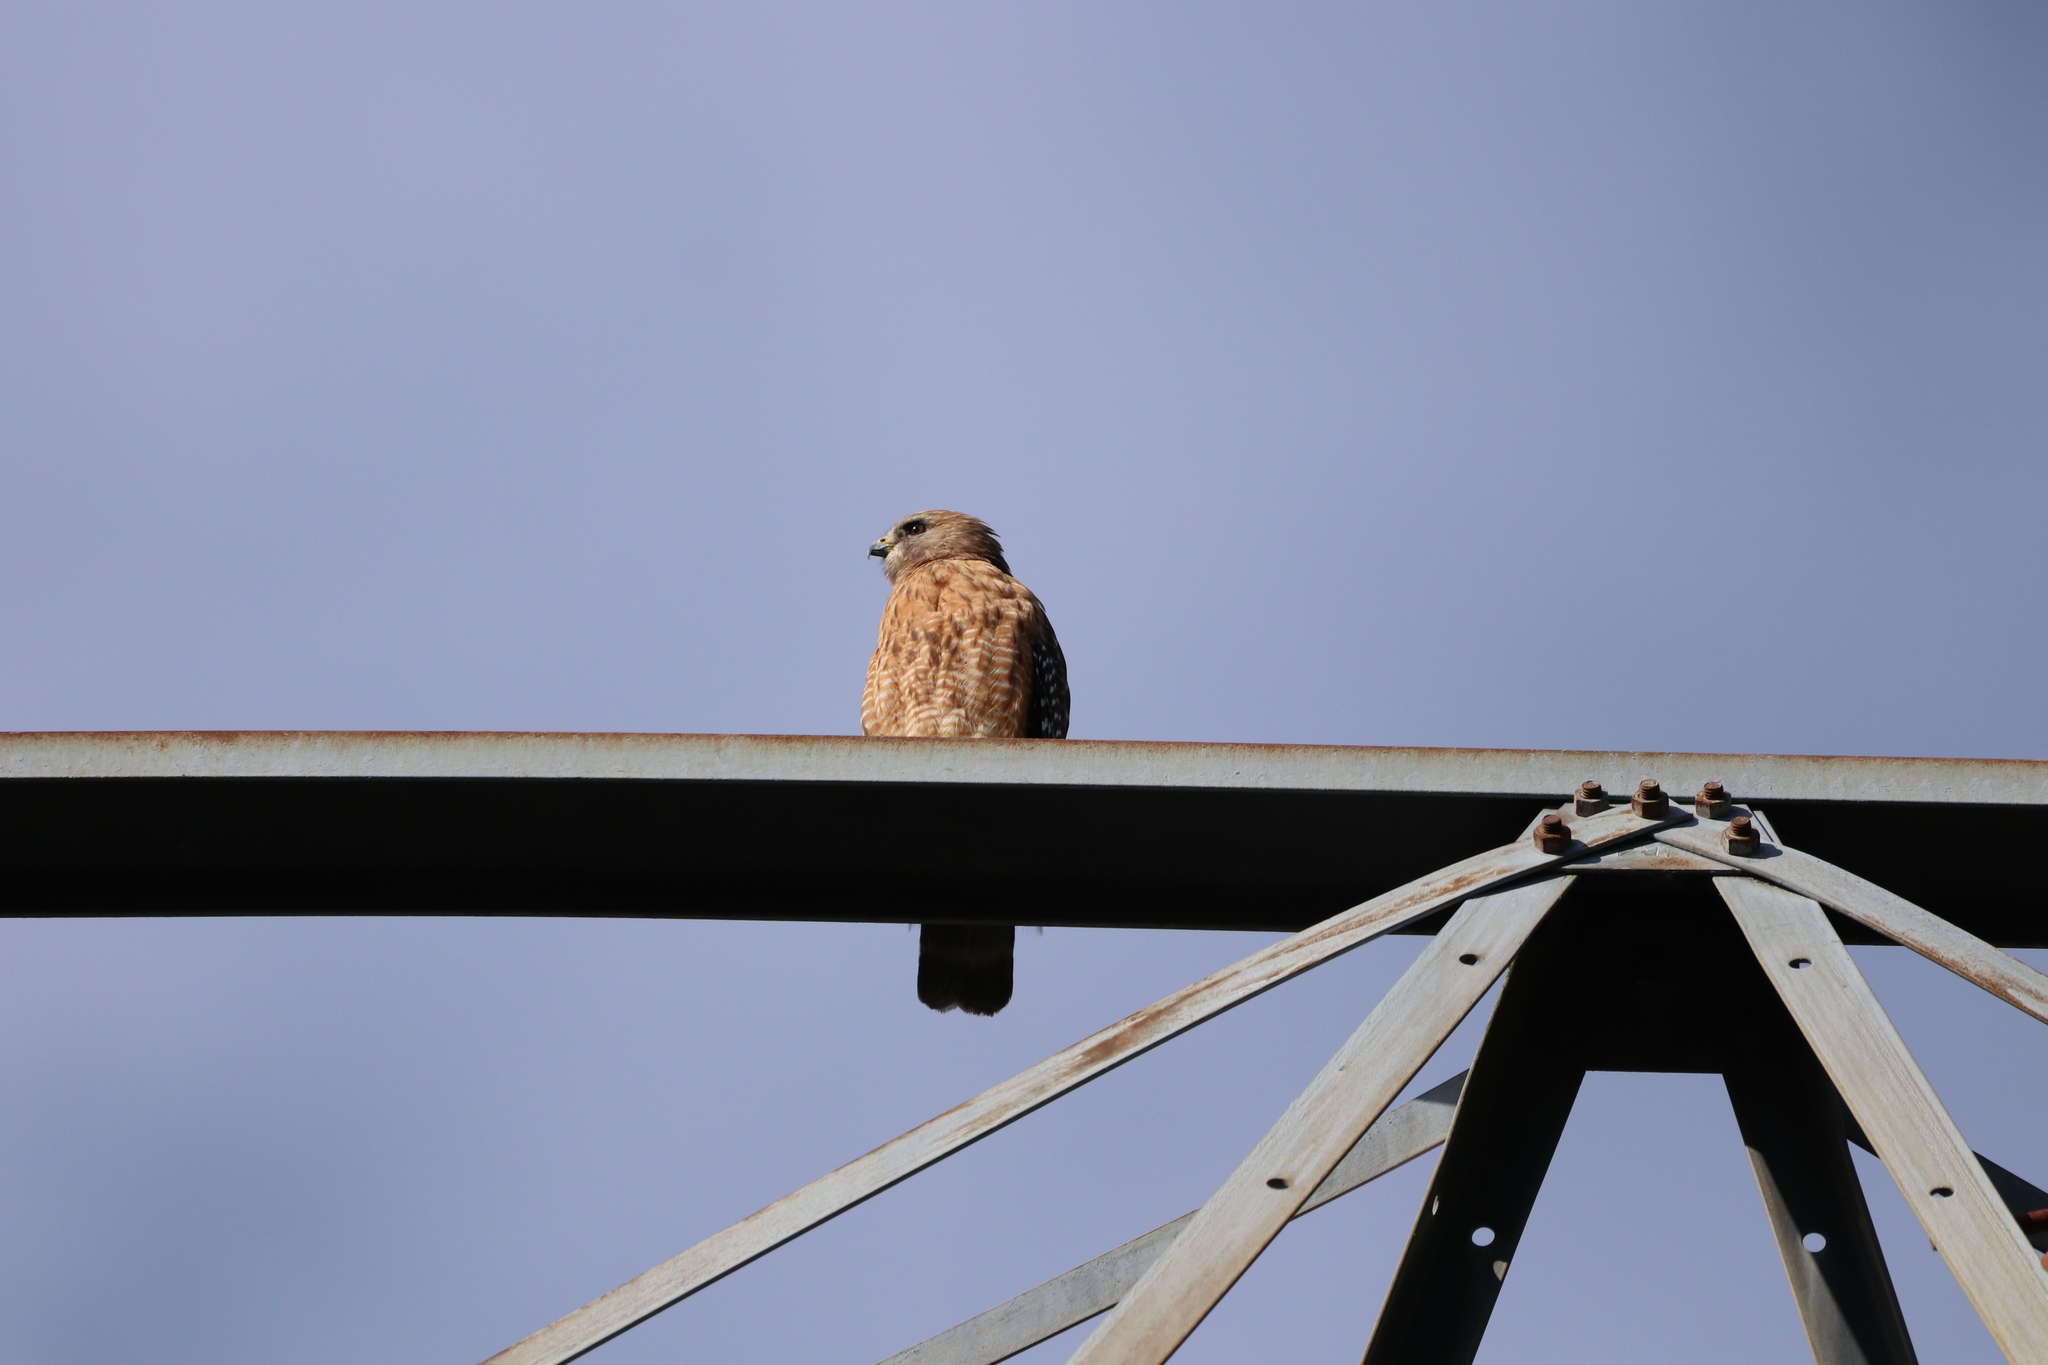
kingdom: Animalia
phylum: Chordata
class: Aves
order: Accipitriformes
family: Accipitridae
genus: Buteo
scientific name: Buteo lineatus
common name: Red-shouldered hawk
